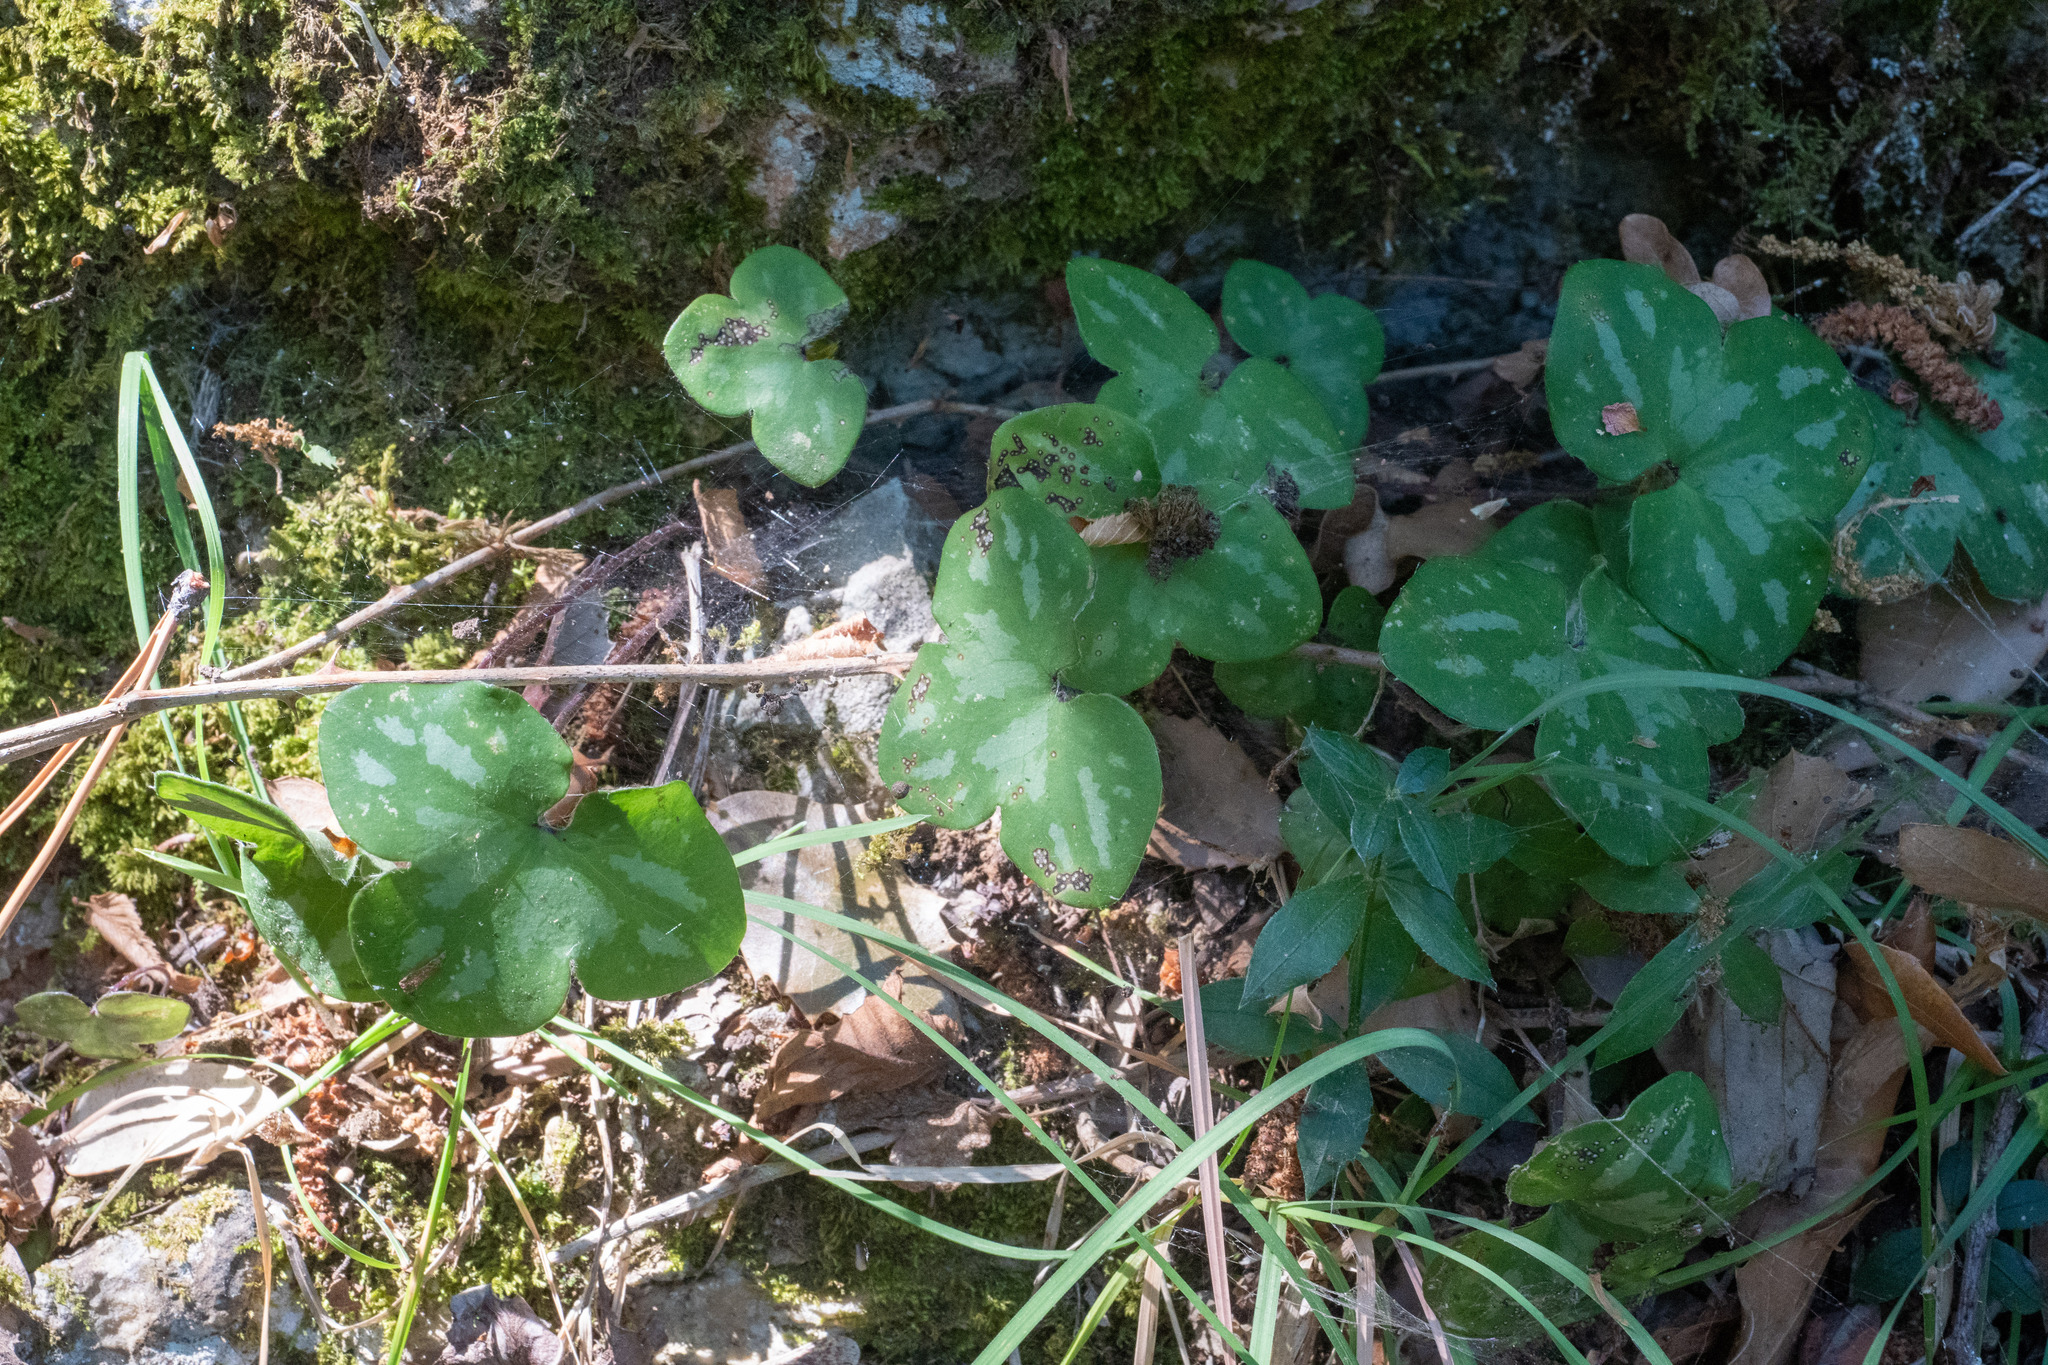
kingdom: Plantae
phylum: Tracheophyta
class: Magnoliopsida
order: Ranunculales
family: Ranunculaceae
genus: Hepatica
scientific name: Hepatica nobilis
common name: Liverleaf
